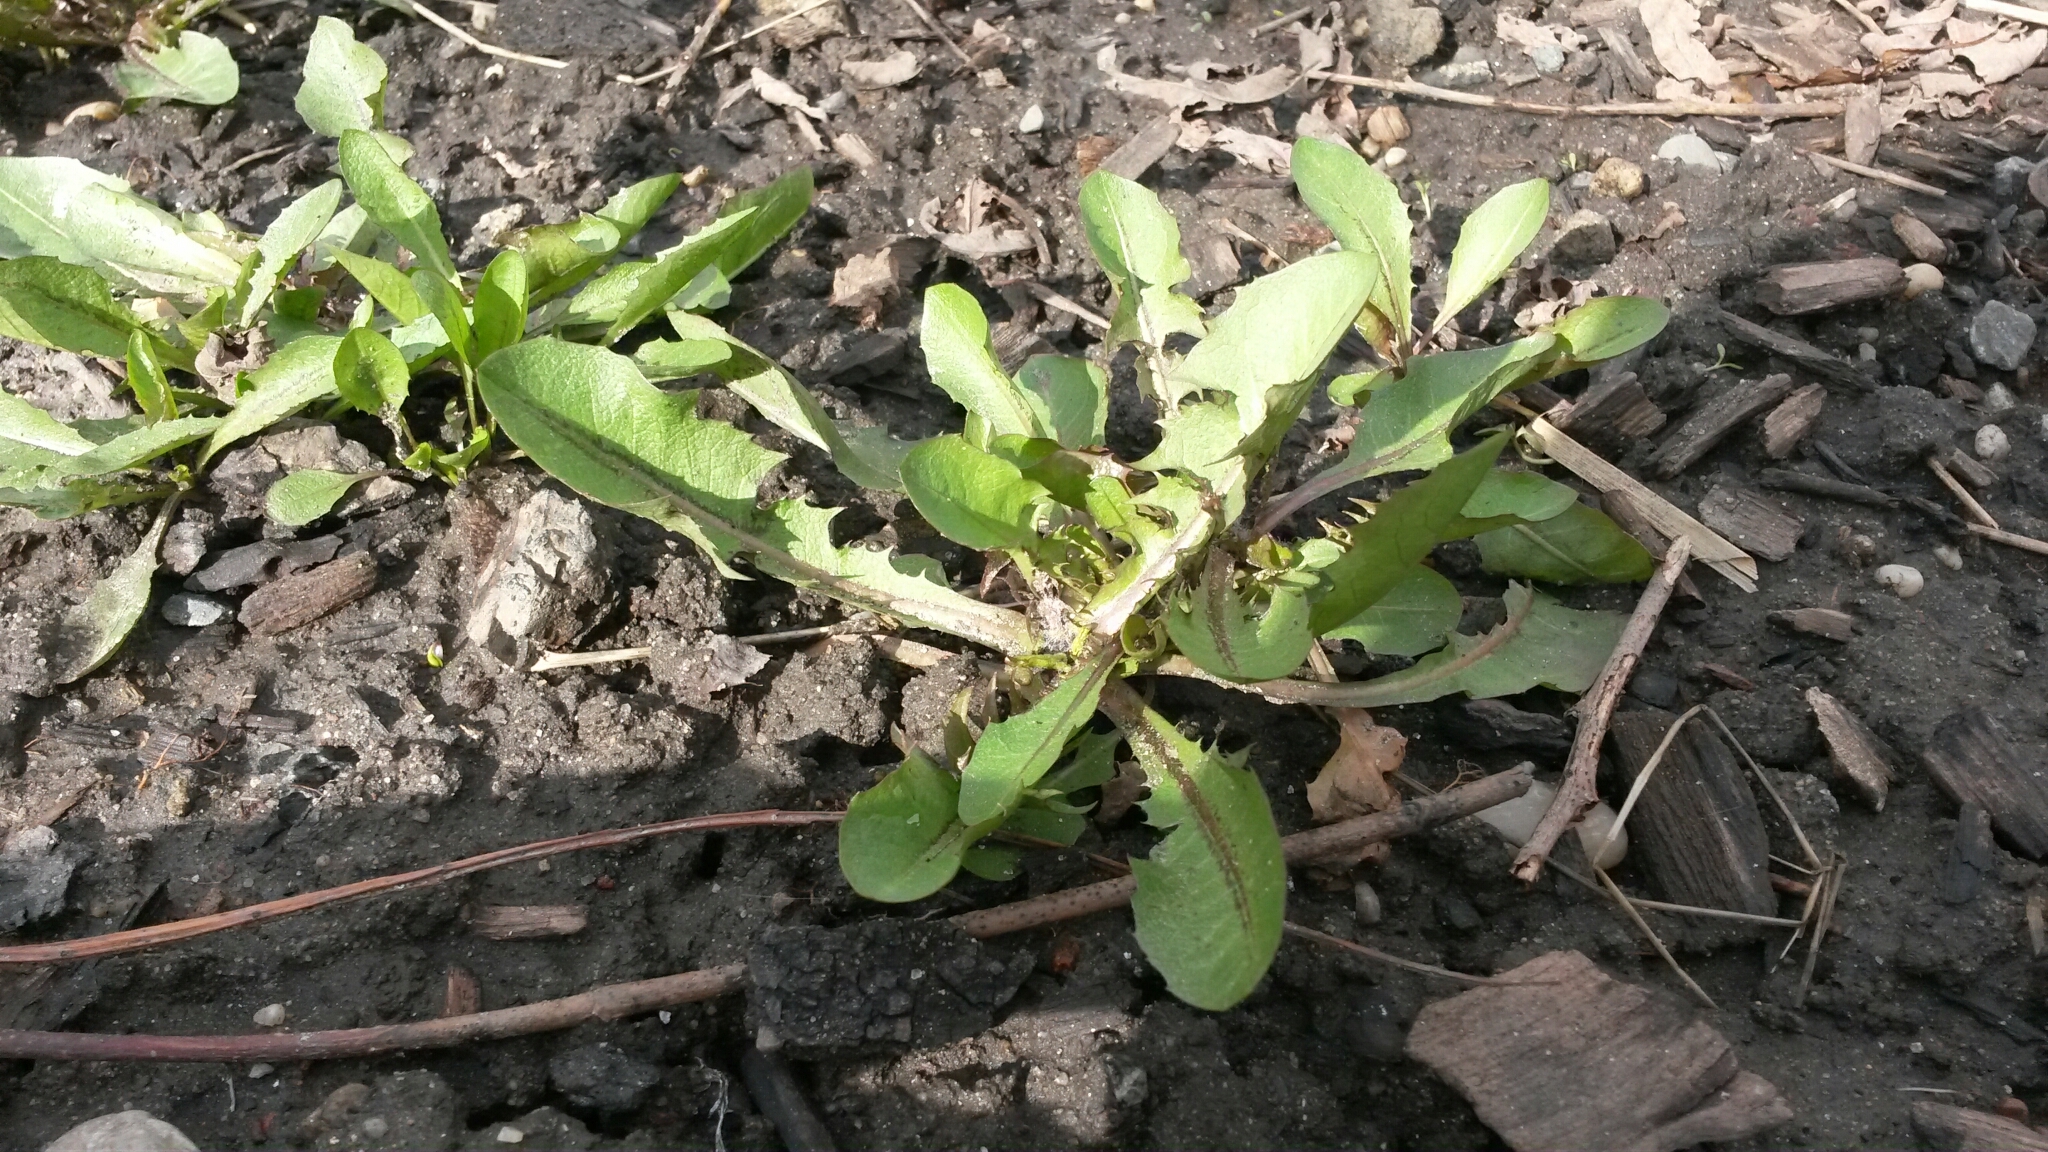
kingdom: Plantae
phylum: Tracheophyta
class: Magnoliopsida
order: Asterales
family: Asteraceae
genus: Taraxacum
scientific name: Taraxacum officinale
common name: Common dandelion
